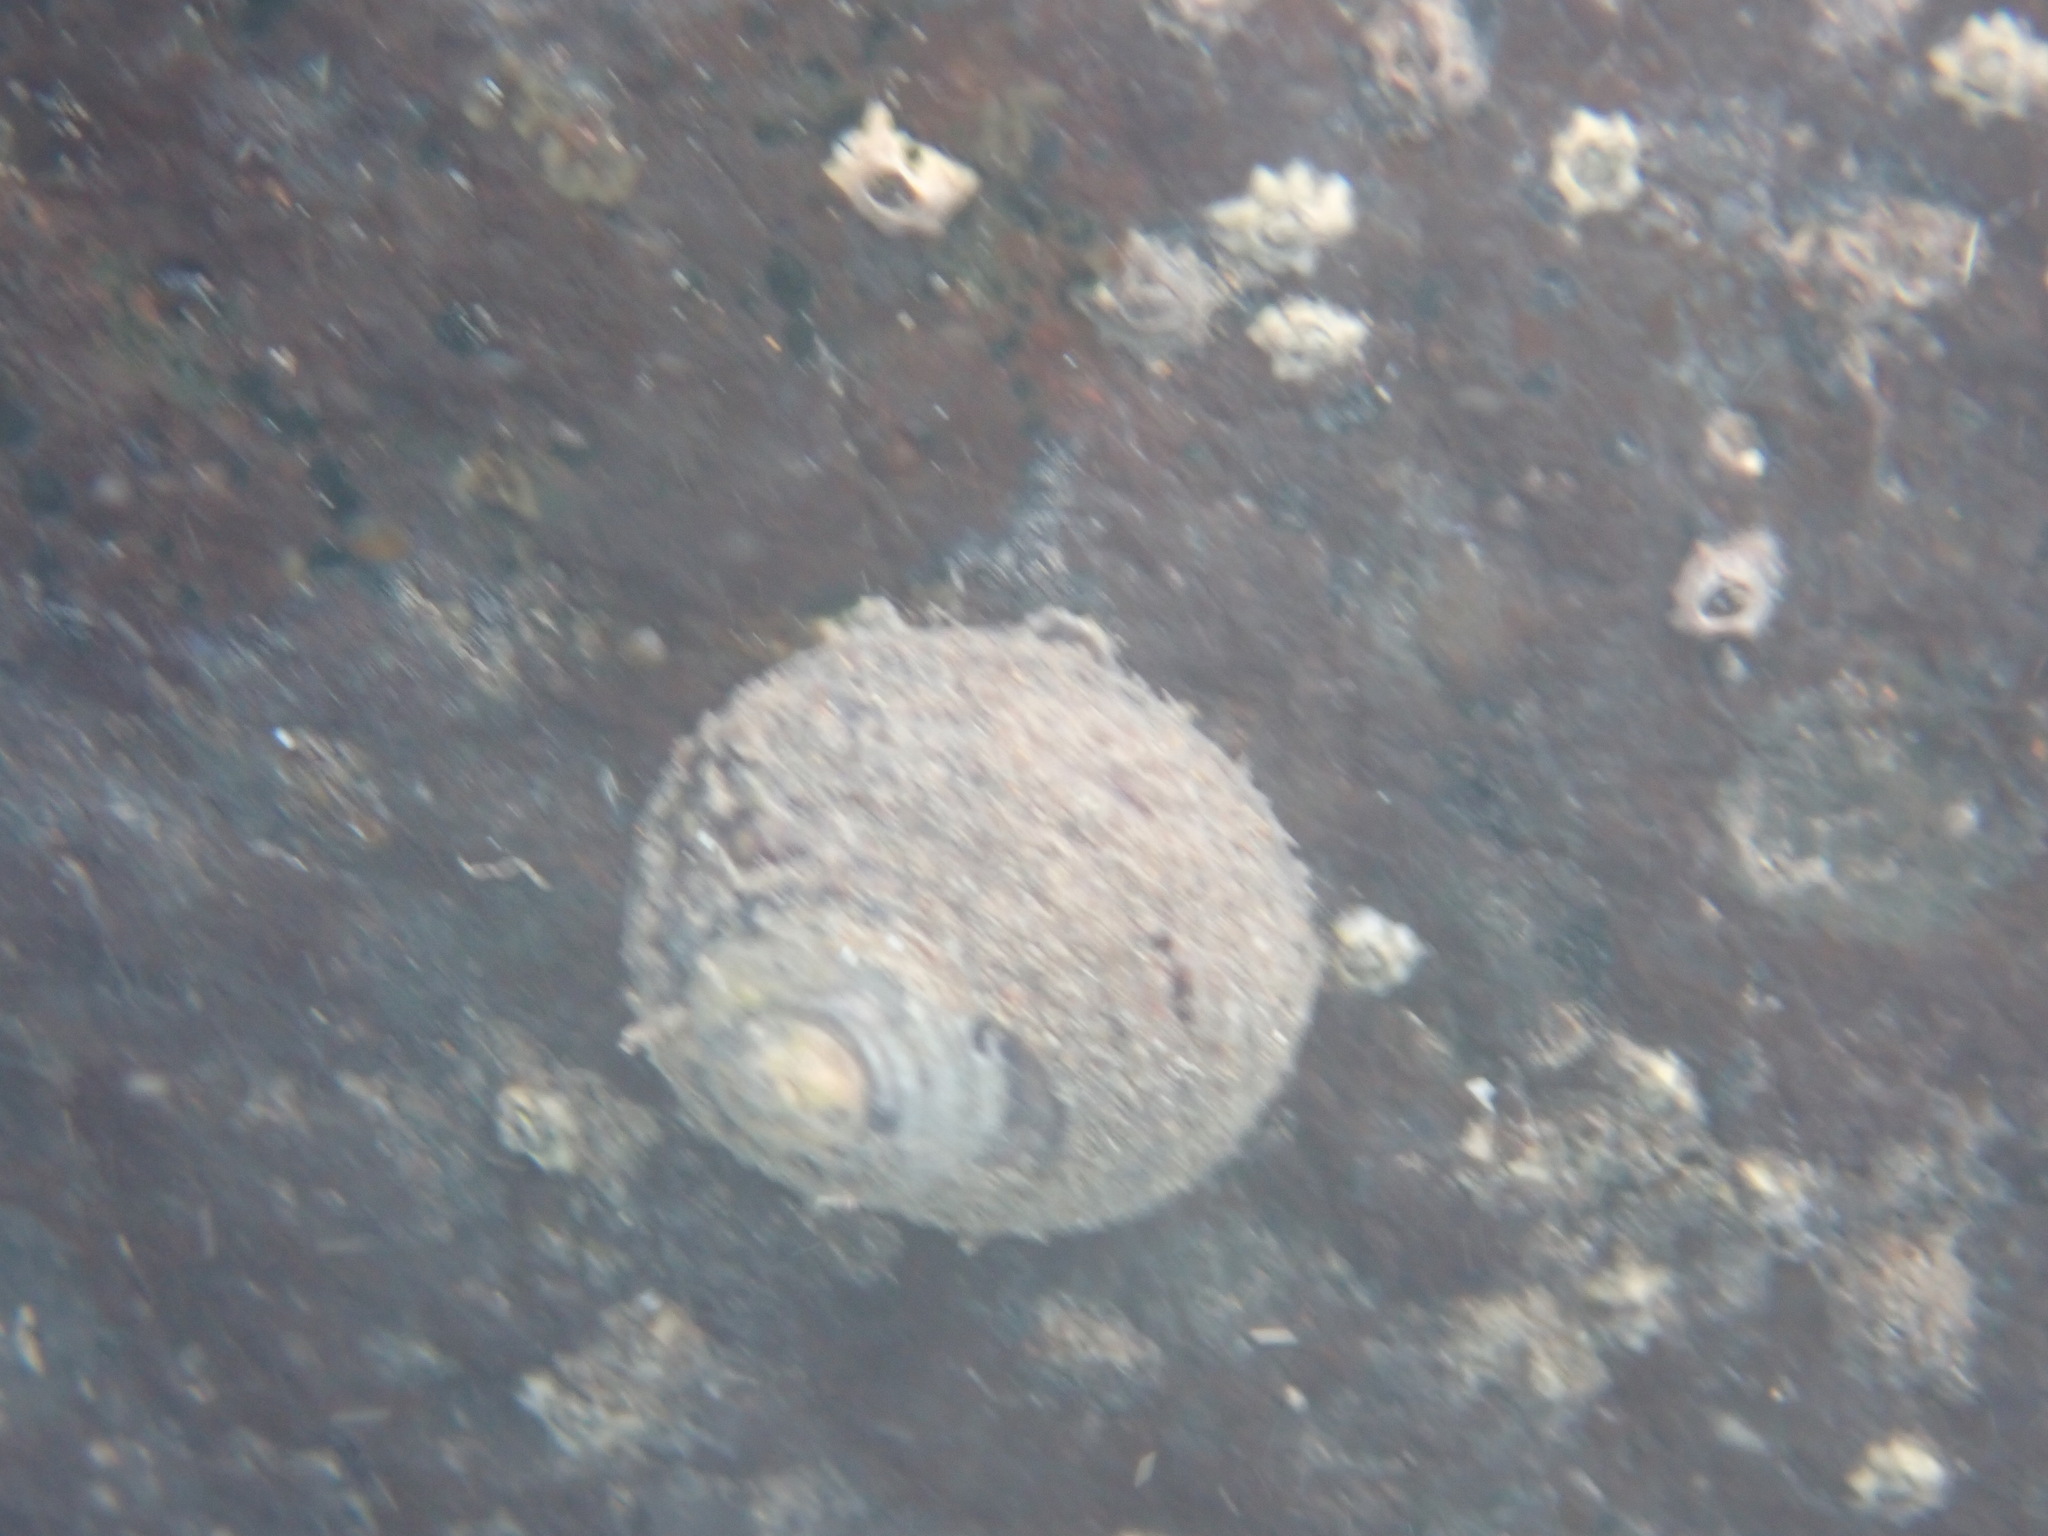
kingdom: Animalia
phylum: Mollusca
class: Gastropoda
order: Trochida
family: Trochidae
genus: Diloma
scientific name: Diloma aethiops
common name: Scorched monodont
